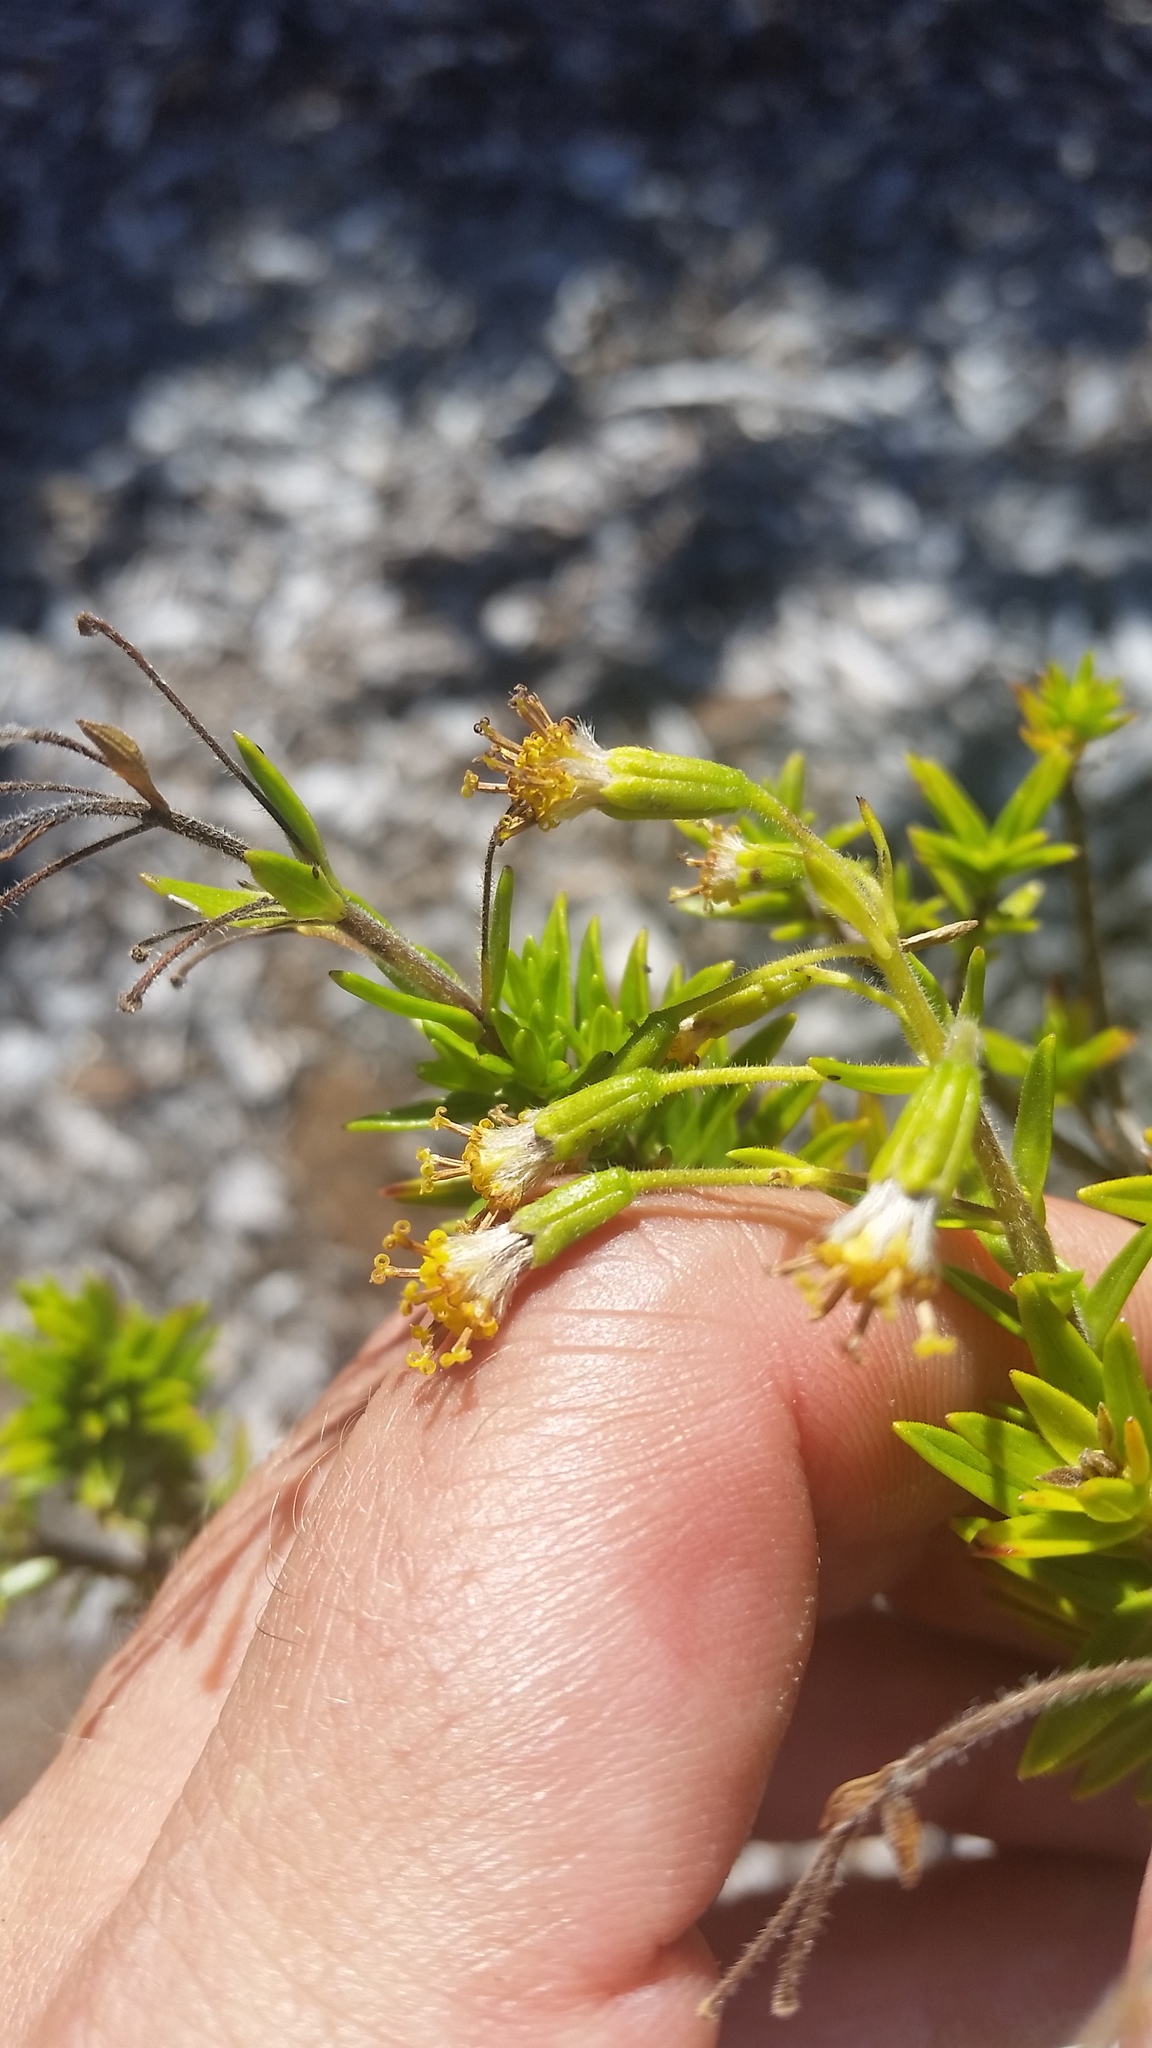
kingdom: Plantae
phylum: Tracheophyta
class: Magnoliopsida
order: Asterales
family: Asteraceae
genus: Dubautia
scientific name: Dubautia ciliolata
